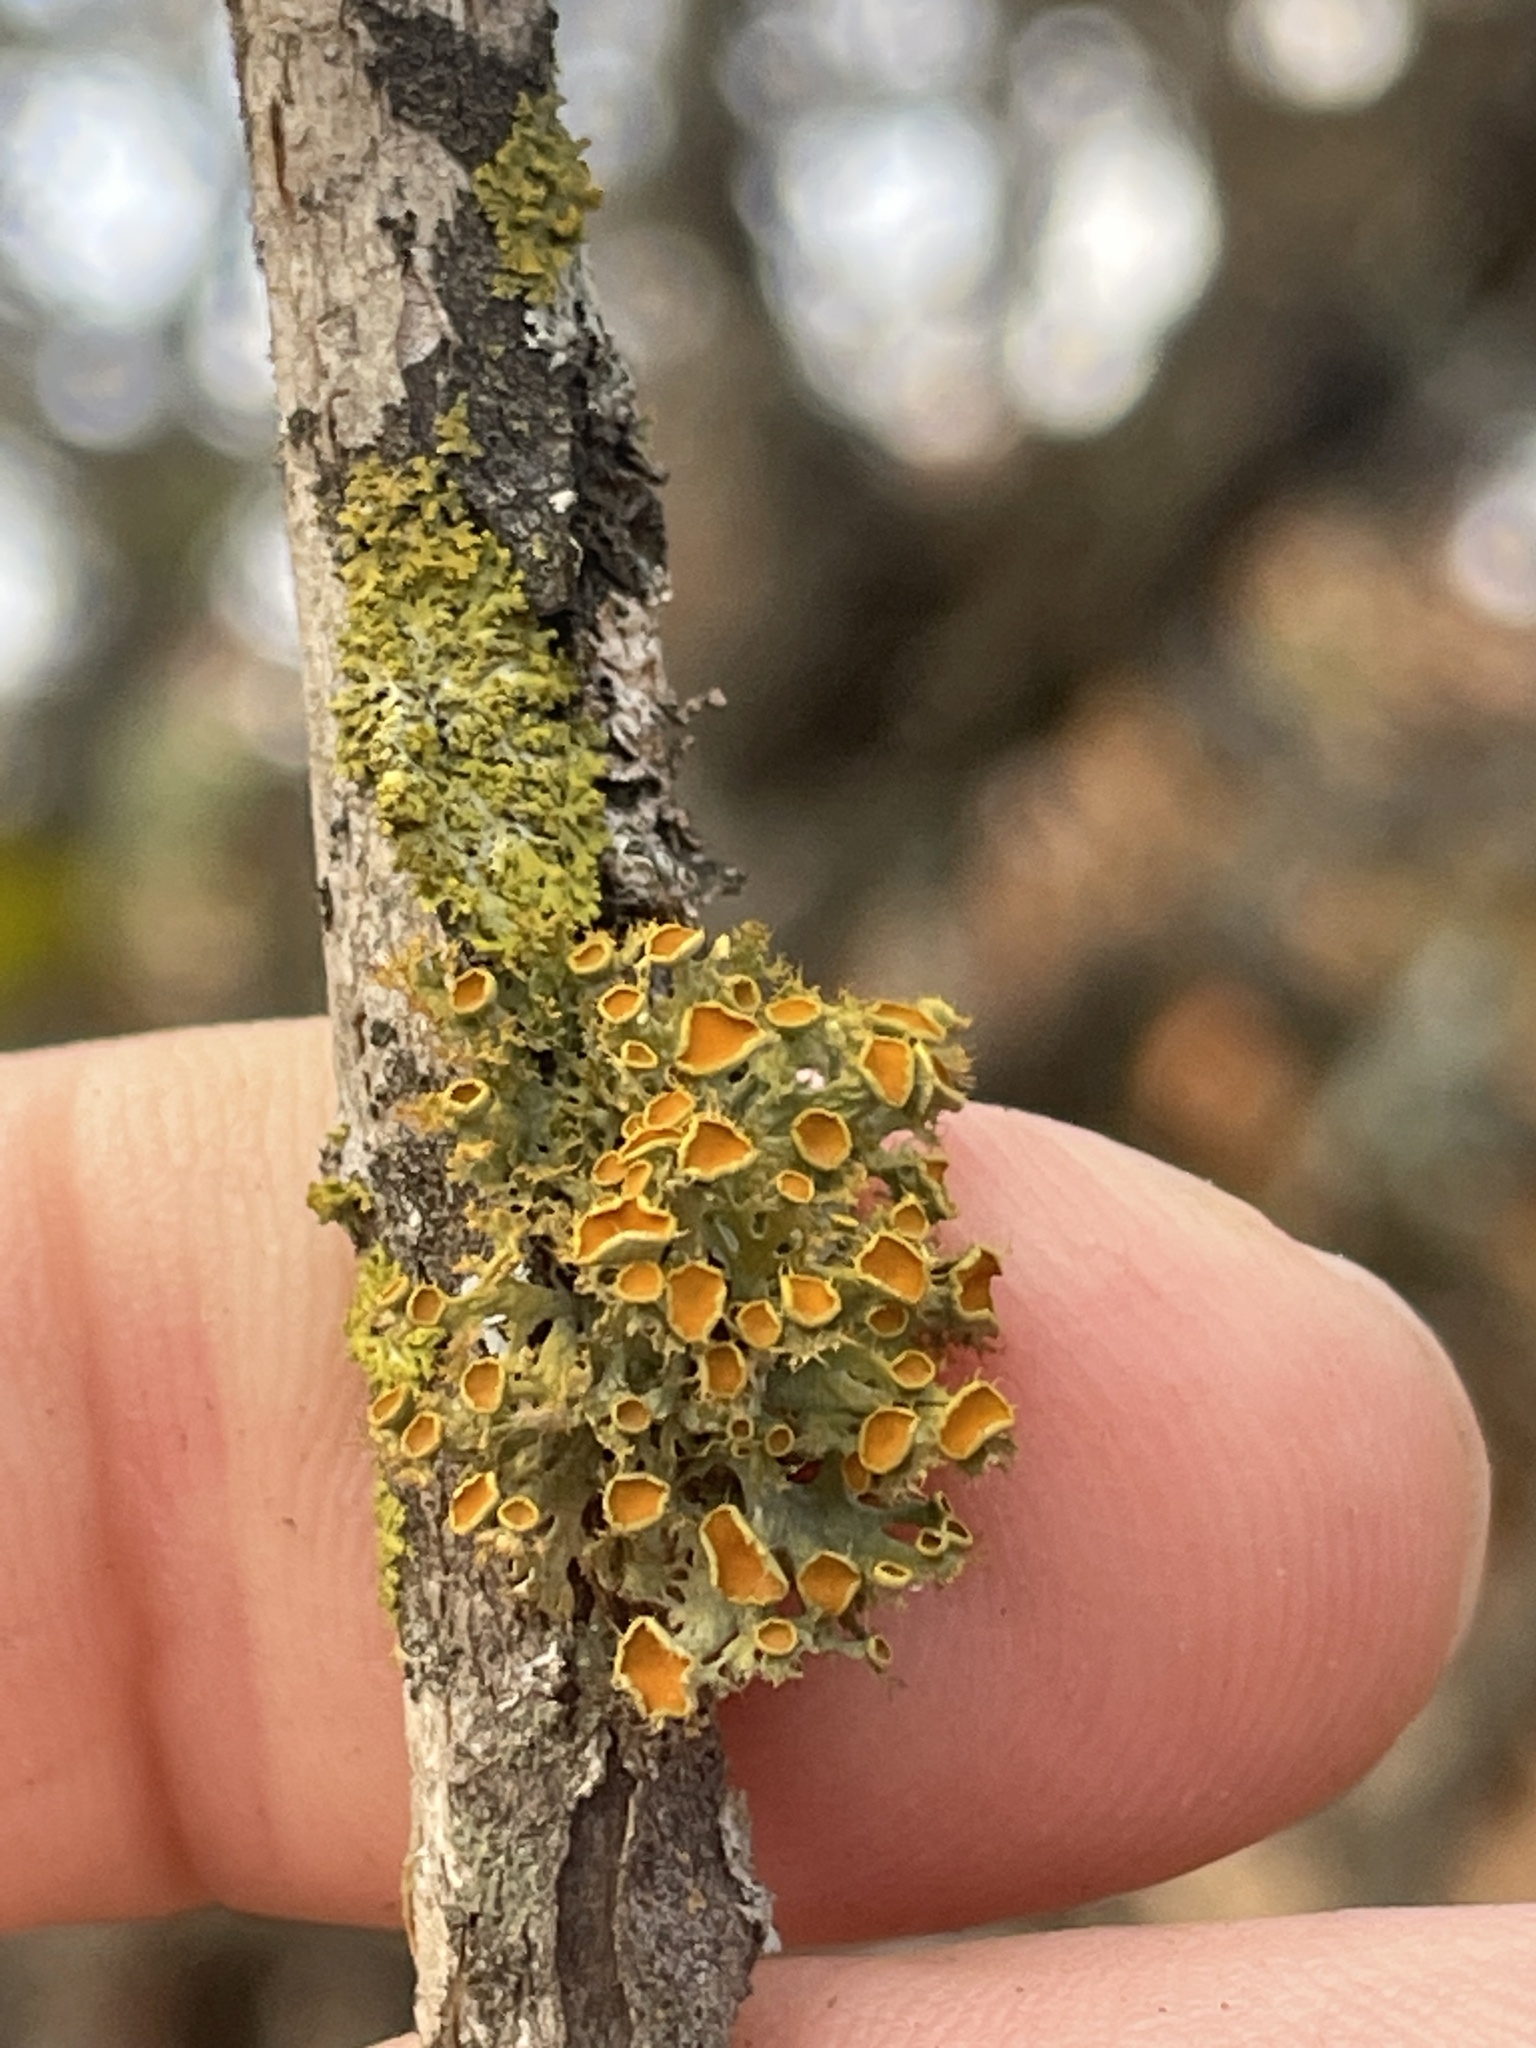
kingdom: Fungi
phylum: Ascomycota
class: Lecanoromycetes
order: Teloschistales
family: Teloschistaceae
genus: Niorma
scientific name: Niorma chrysophthalma
